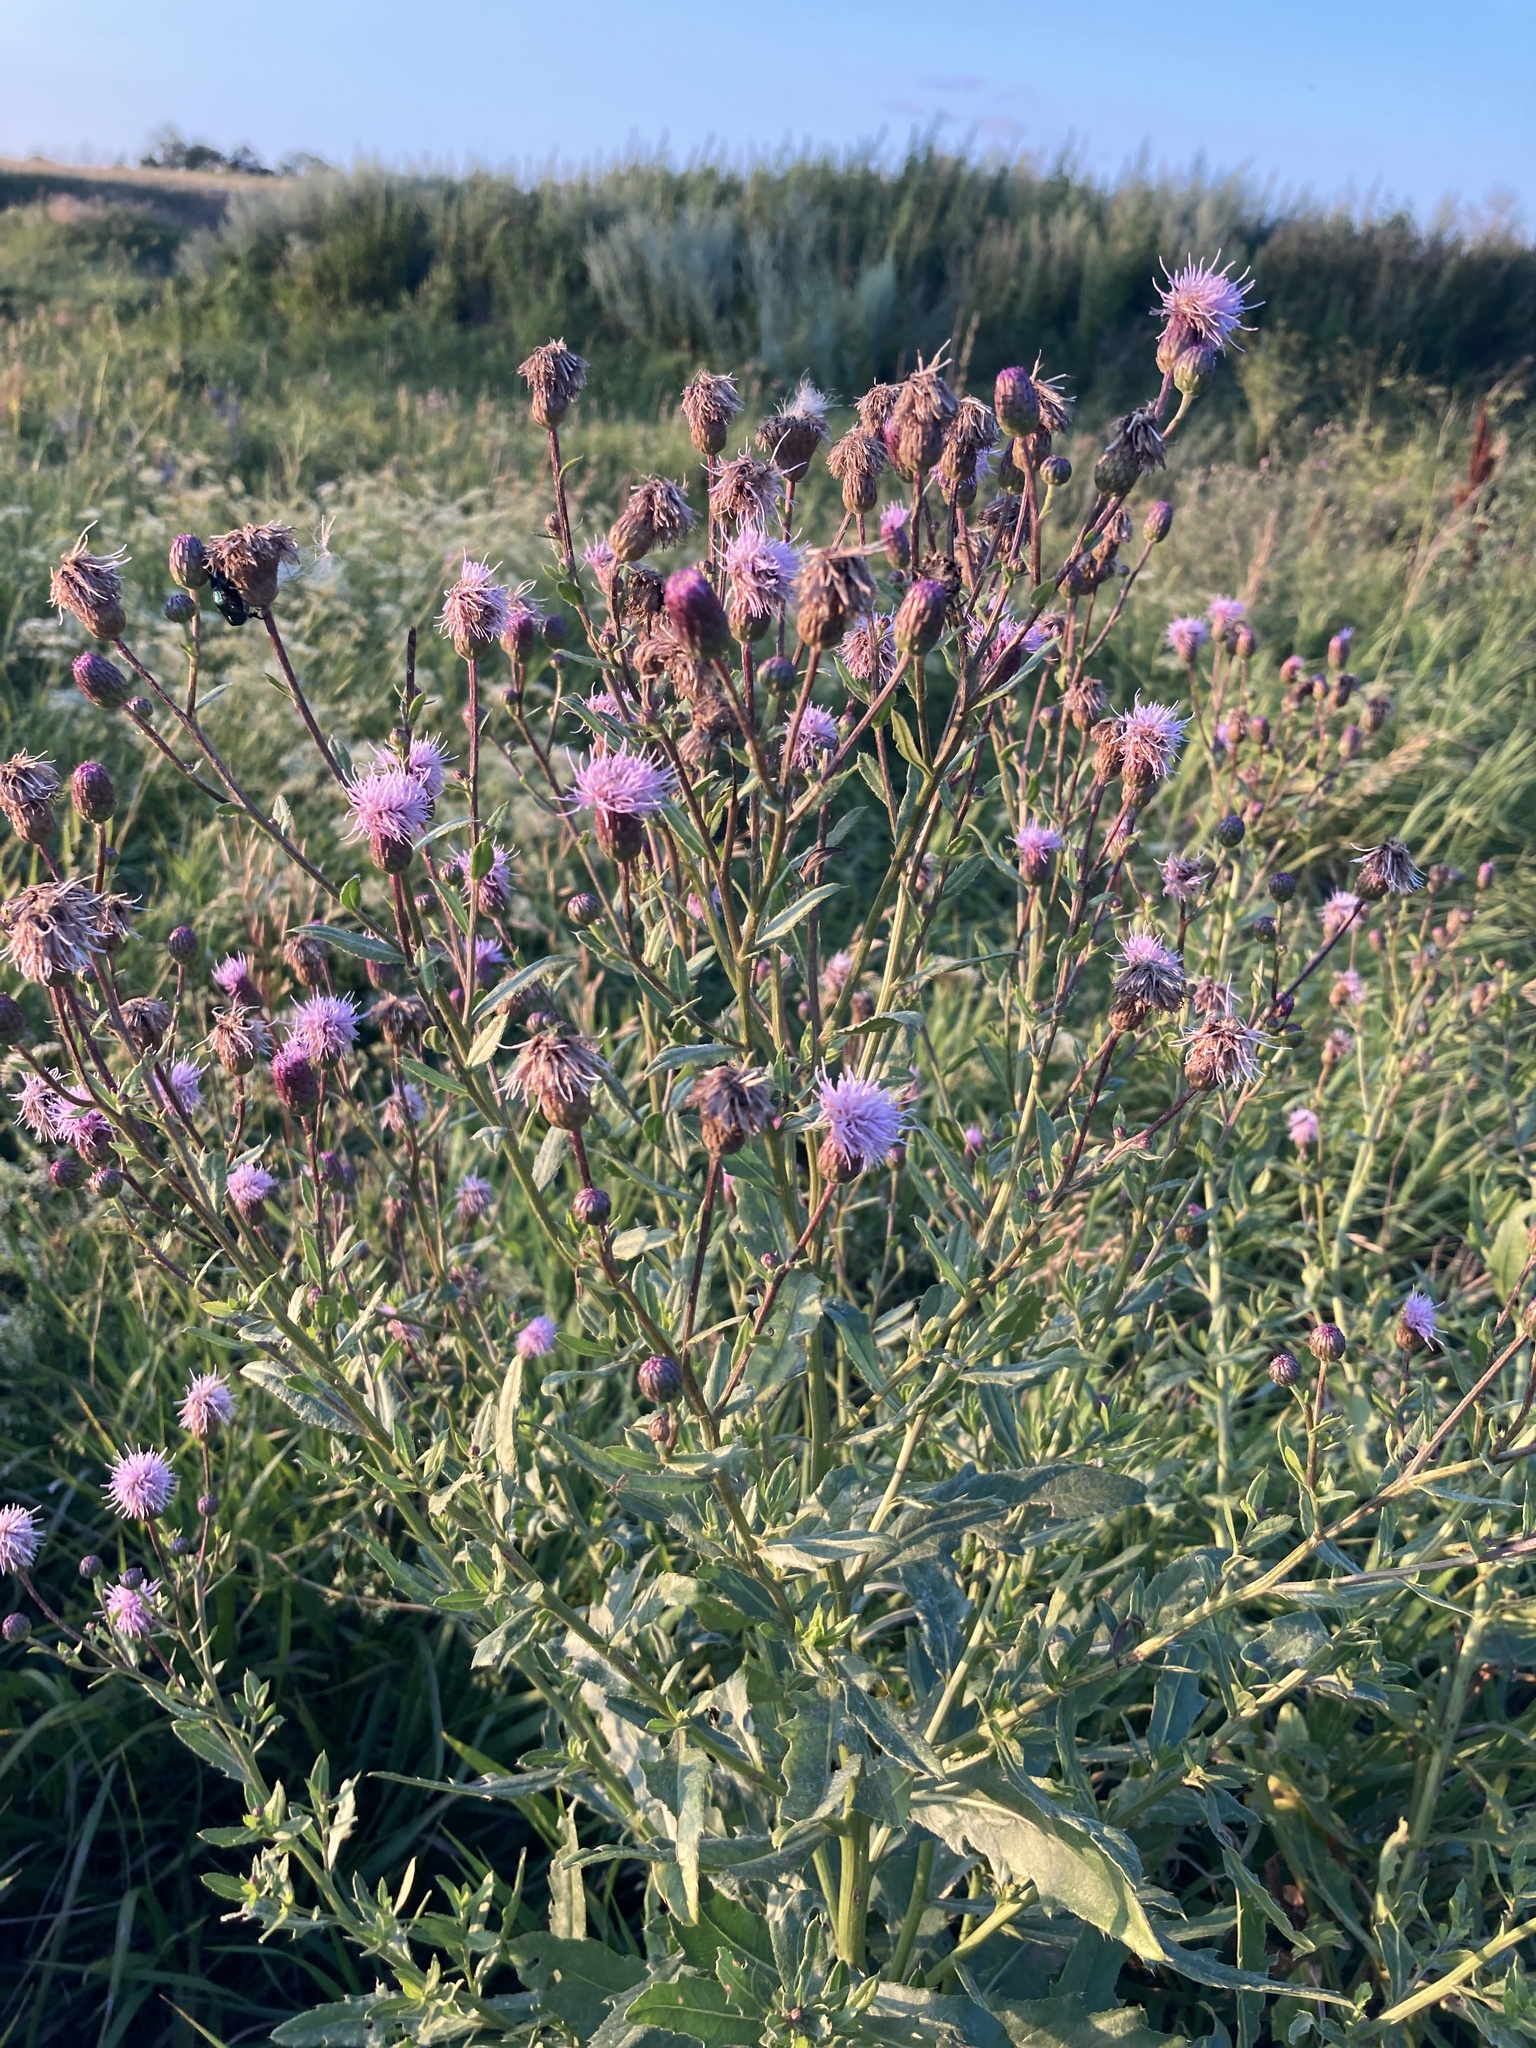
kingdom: Plantae
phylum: Tracheophyta
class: Magnoliopsida
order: Asterales
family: Asteraceae
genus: Cirsium
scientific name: Cirsium arvense
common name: Creeping thistle
